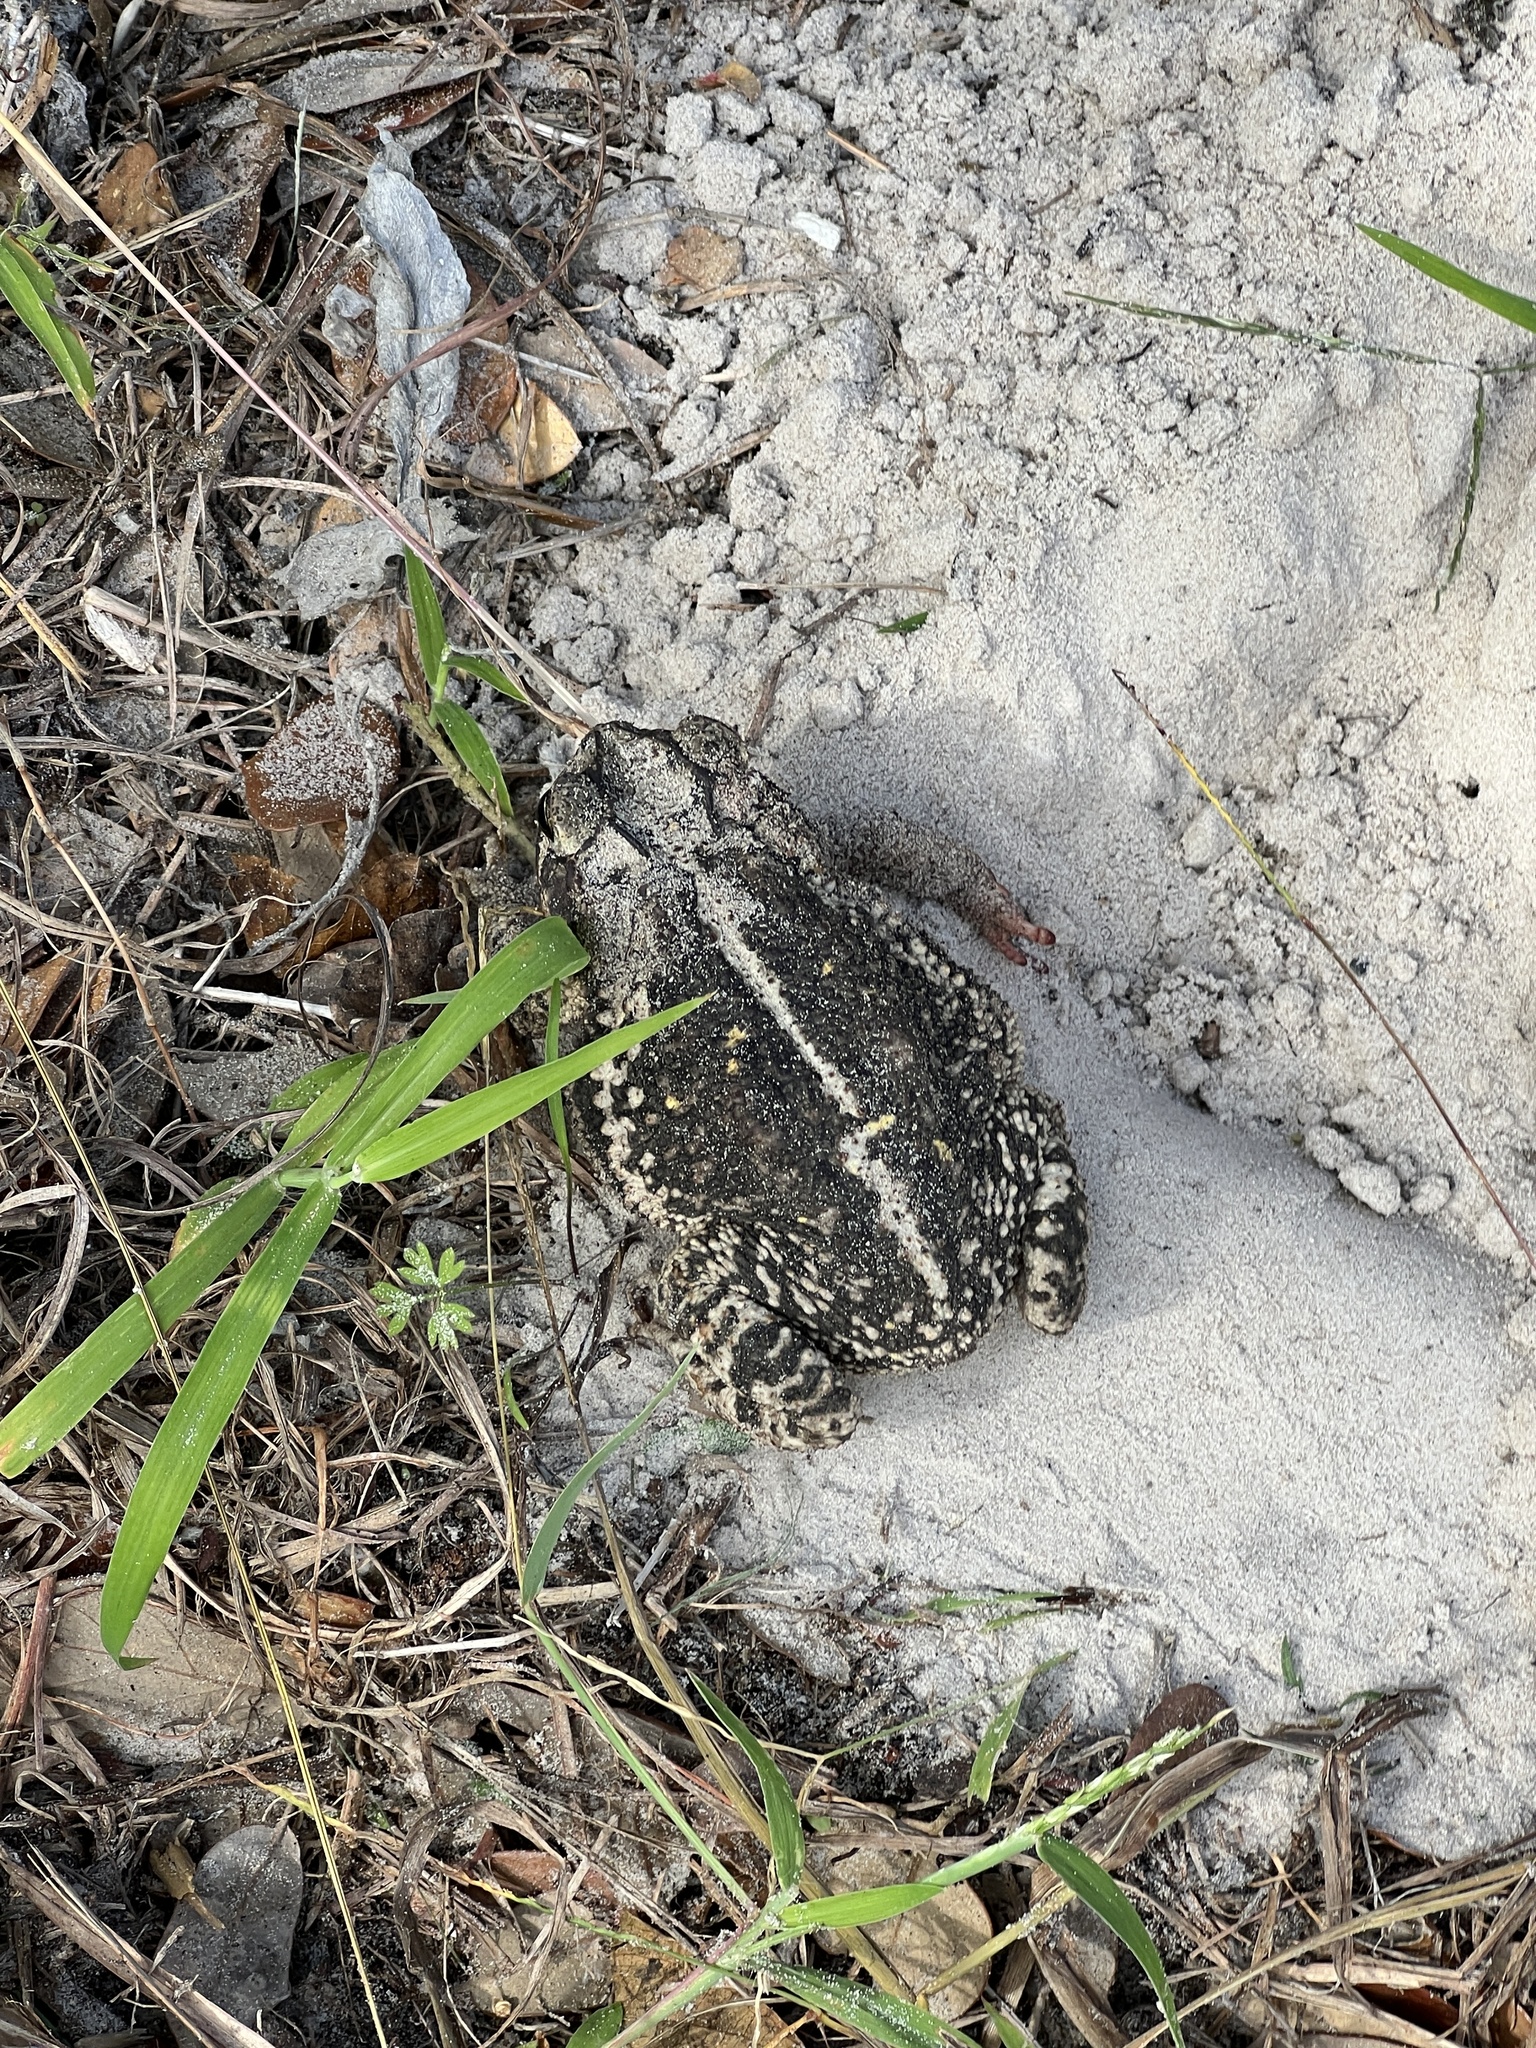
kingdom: Animalia
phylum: Chordata
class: Amphibia
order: Anura
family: Bufonidae
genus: Incilius
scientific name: Incilius nebulifer
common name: Gulf coast toad
